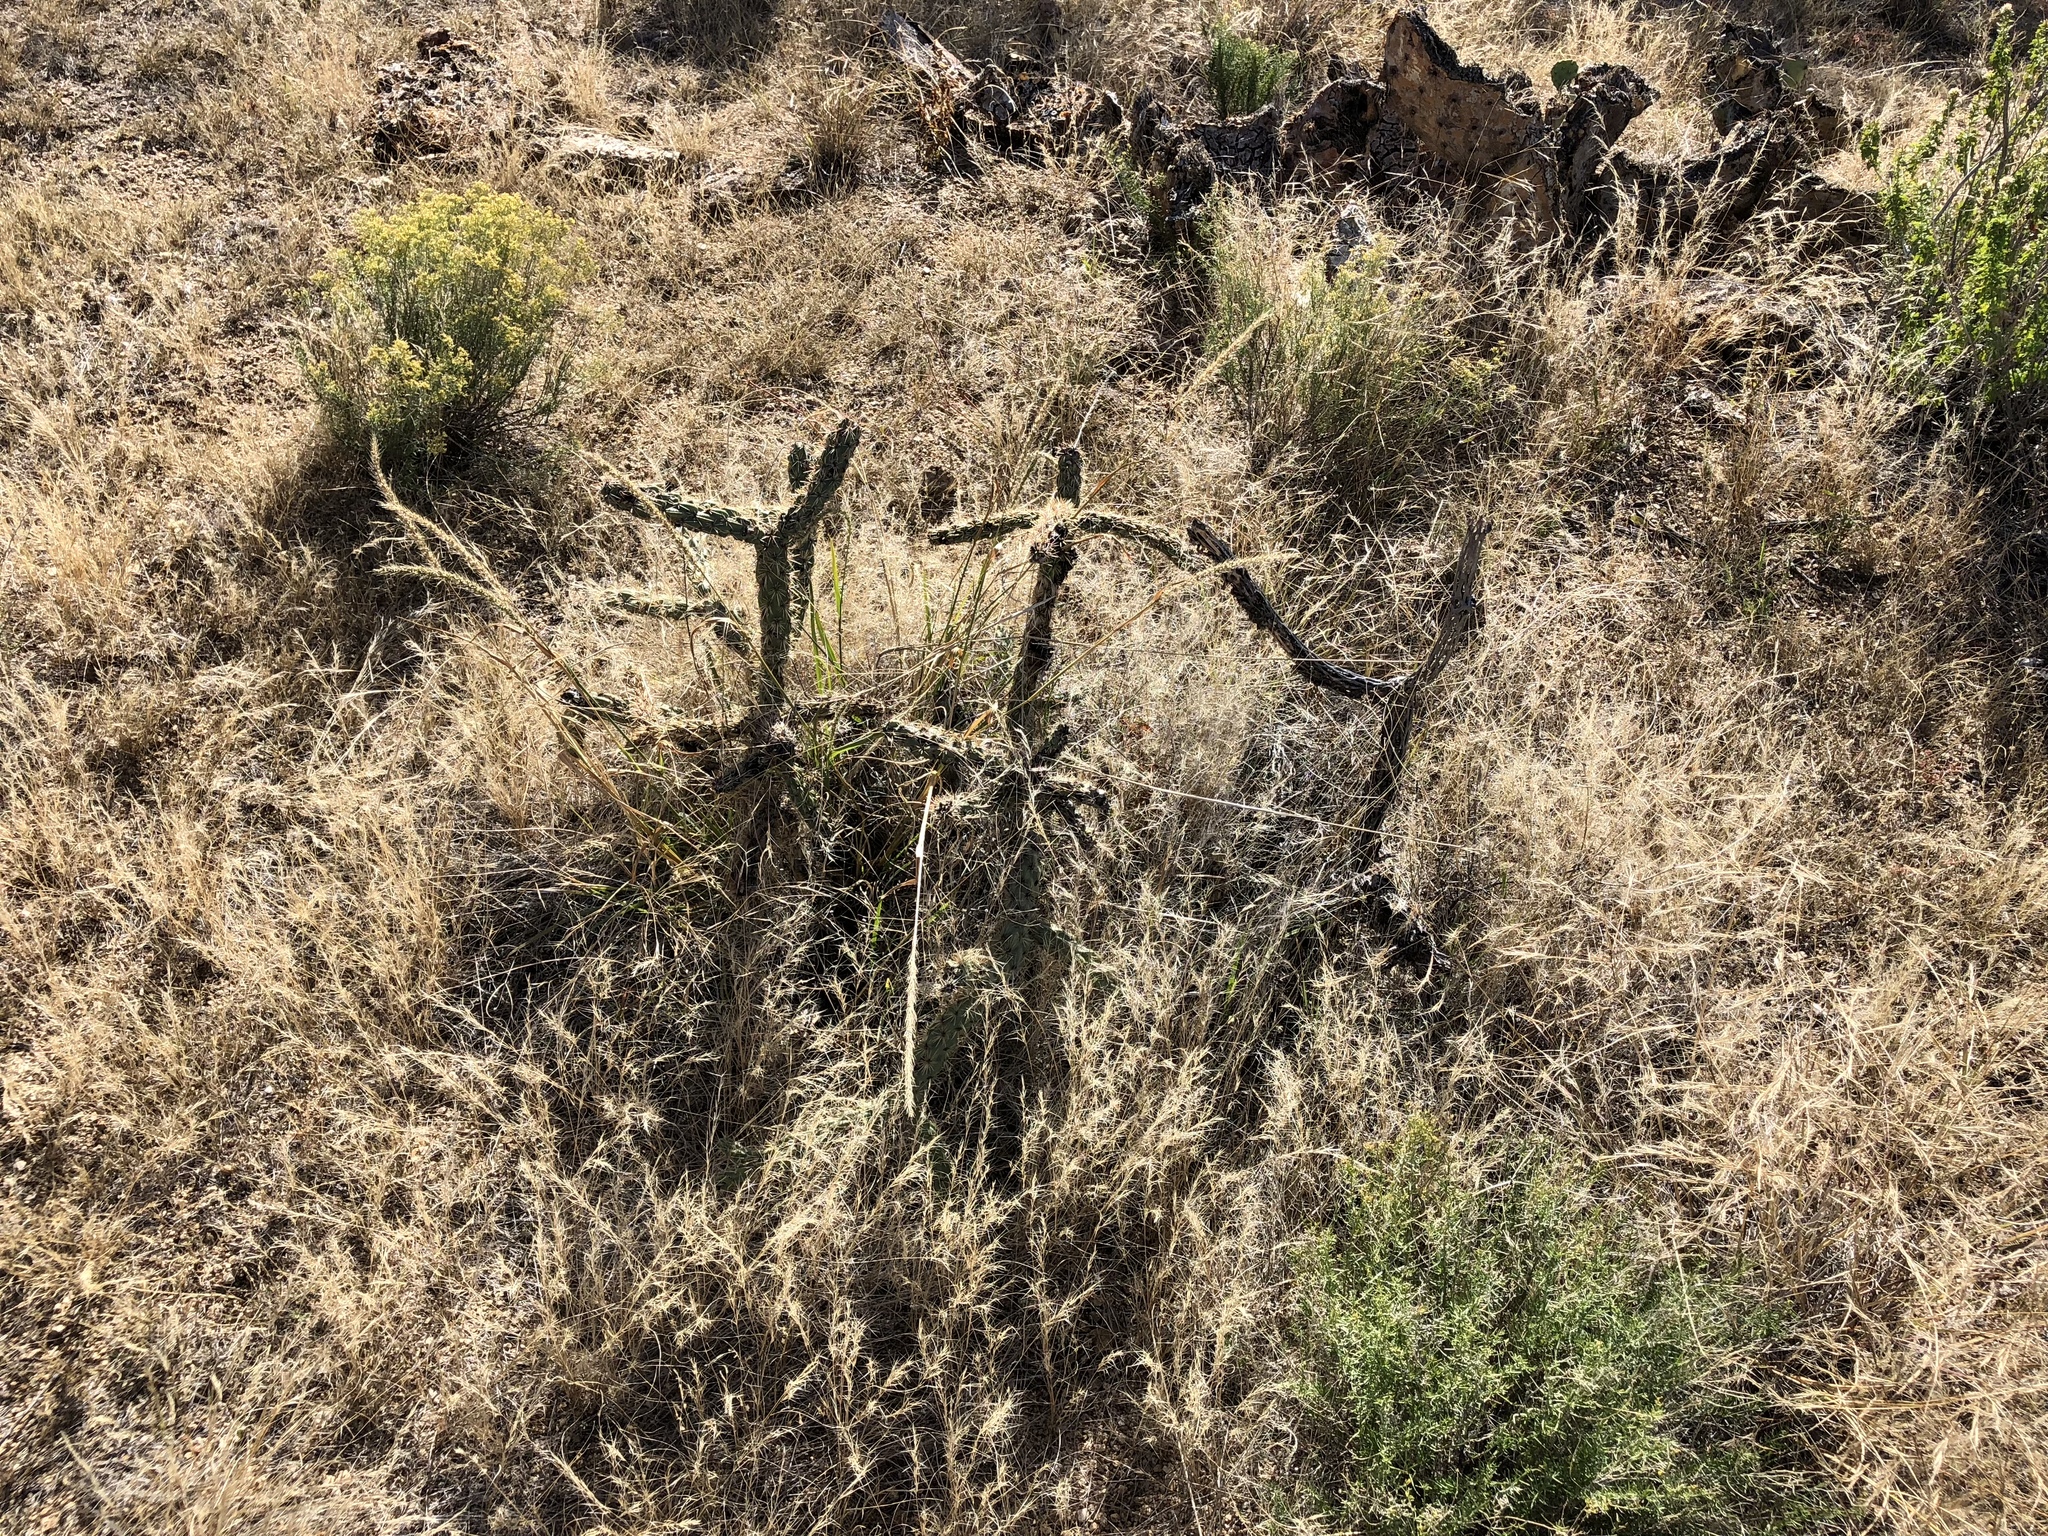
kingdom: Plantae
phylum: Tracheophyta
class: Magnoliopsida
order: Caryophyllales
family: Cactaceae
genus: Cylindropuntia
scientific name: Cylindropuntia imbricata
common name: Candelabrum cactus
